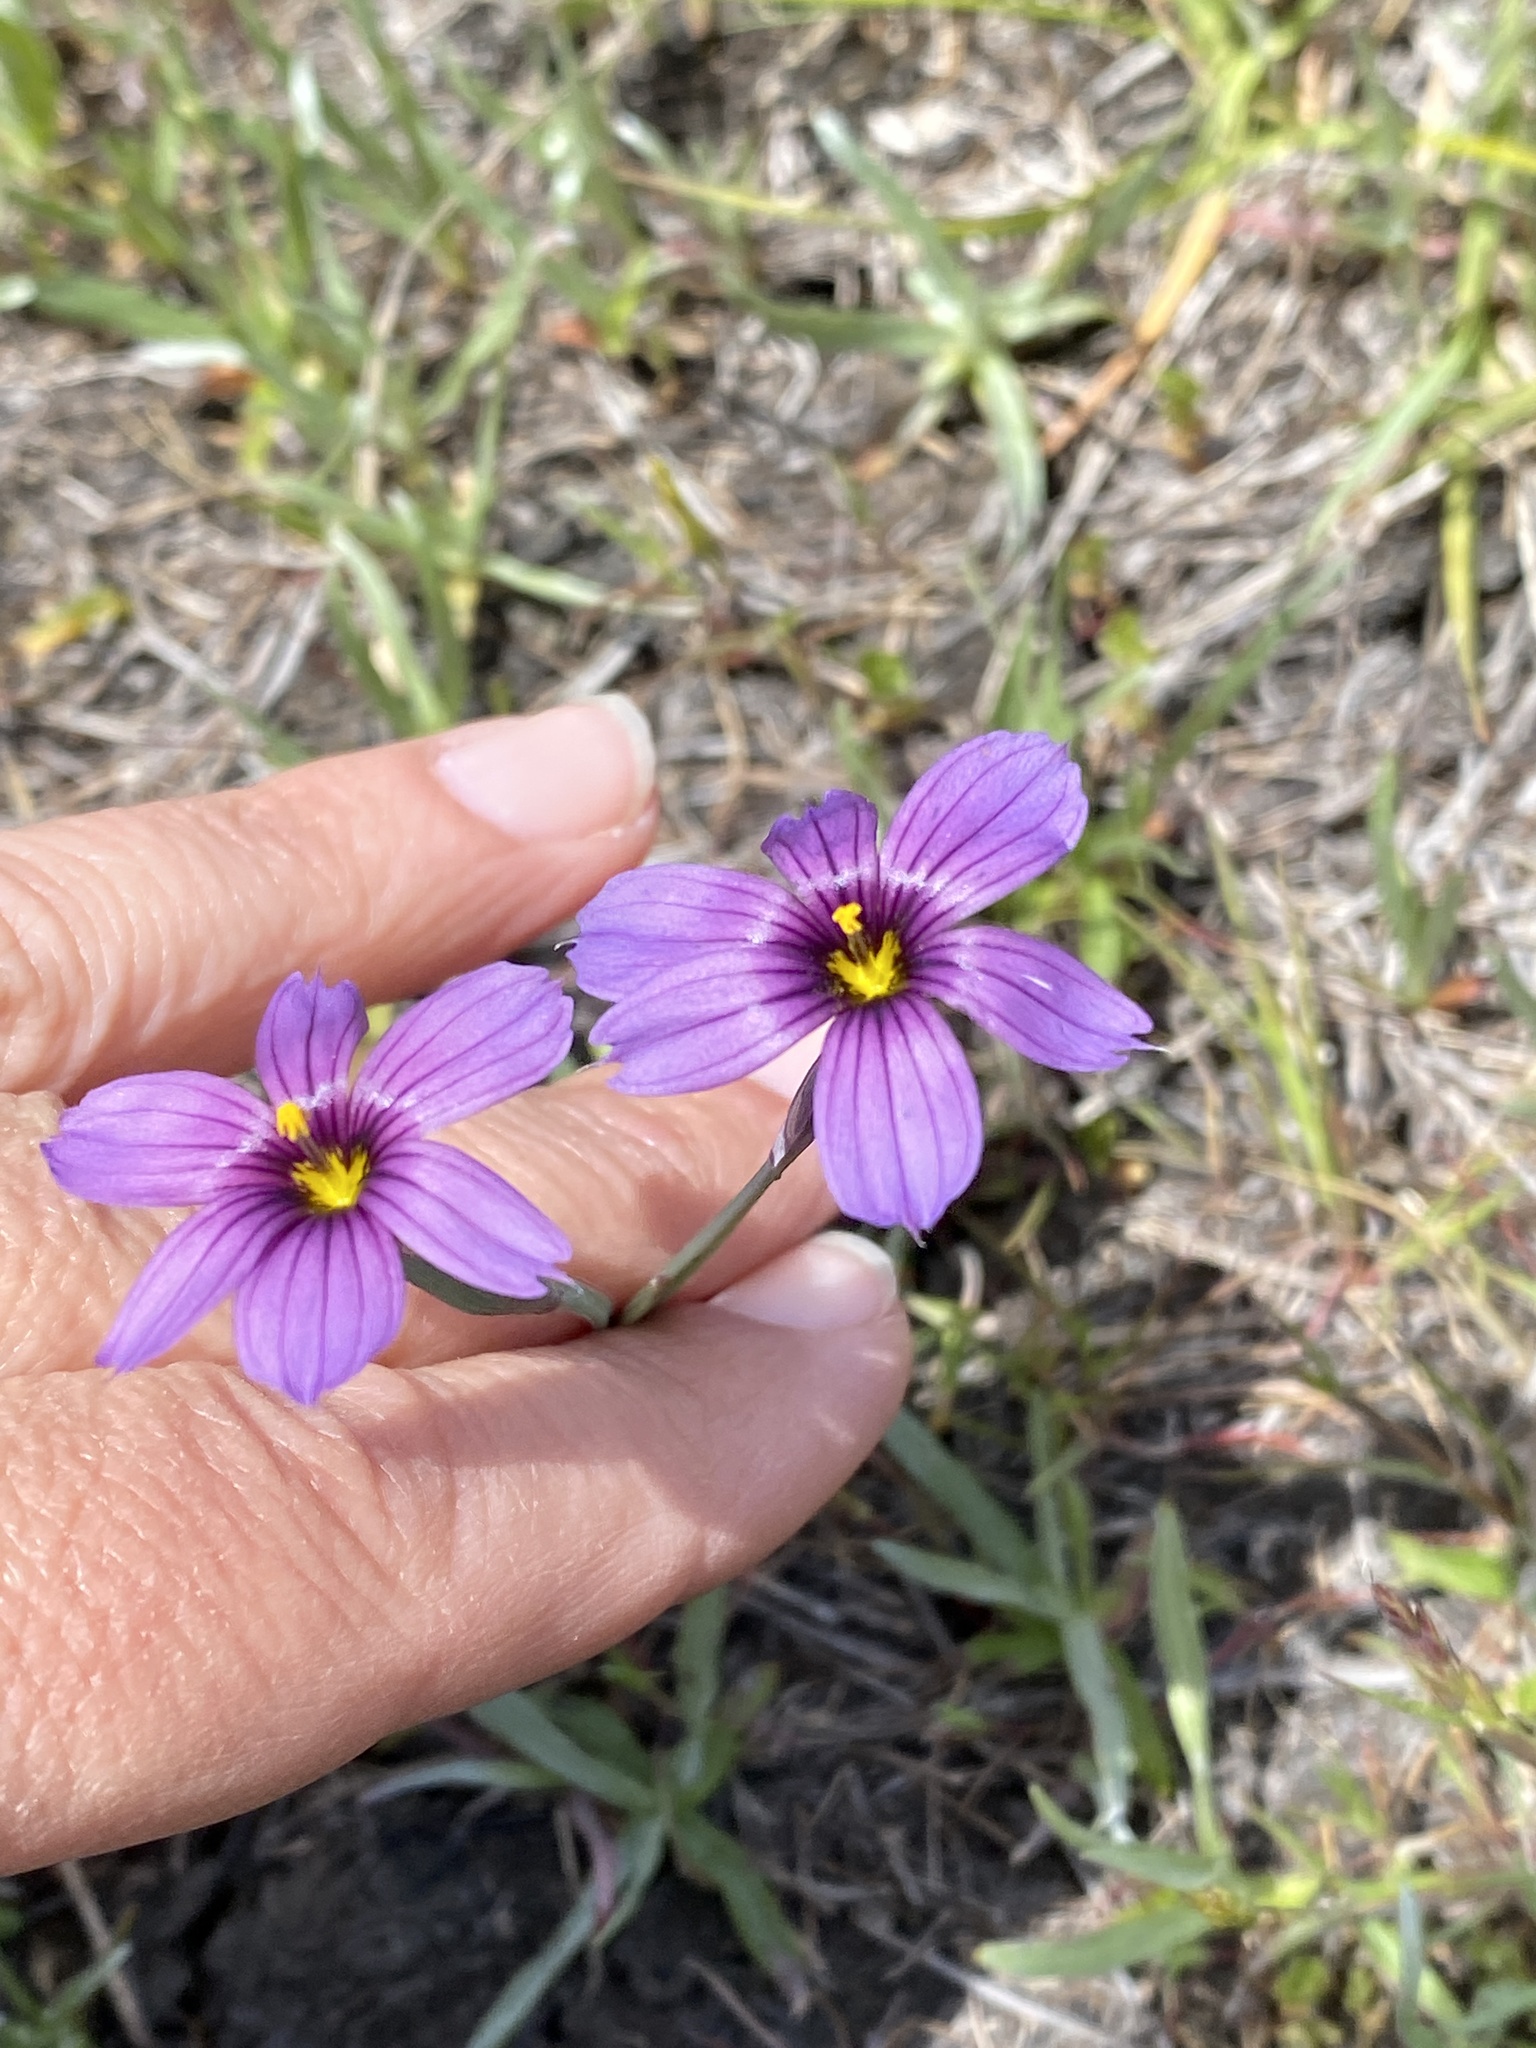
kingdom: Plantae
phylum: Tracheophyta
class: Liliopsida
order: Asparagales
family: Iridaceae
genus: Sisyrinchium
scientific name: Sisyrinchium bellum
